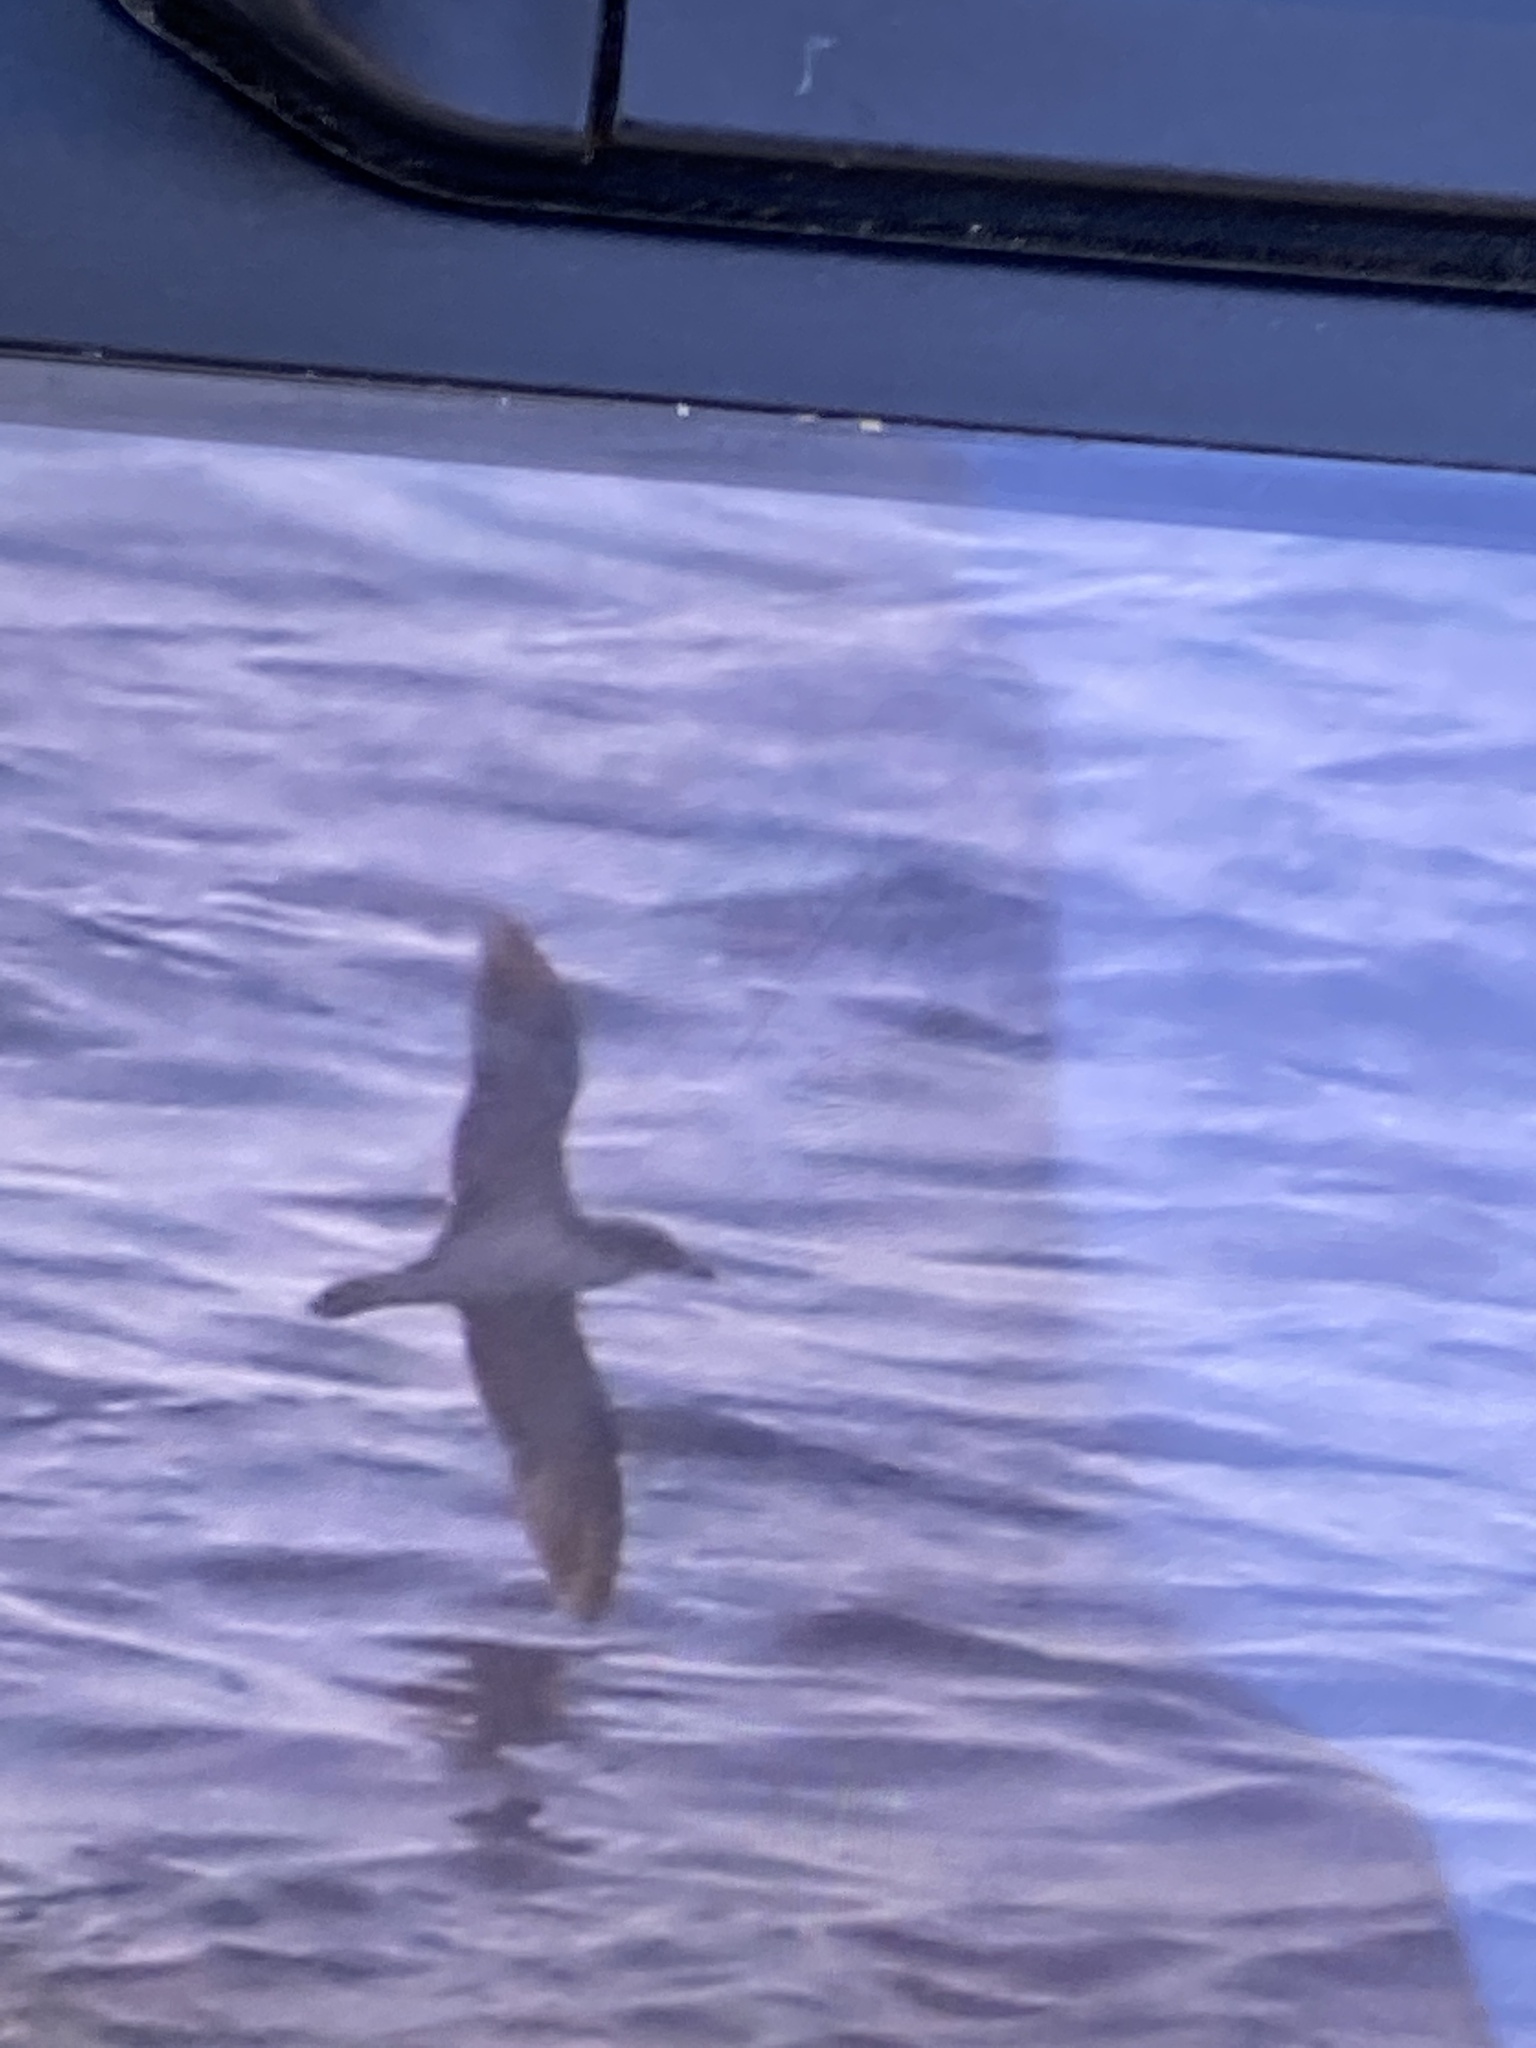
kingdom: Animalia
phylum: Chordata
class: Aves
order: Procellariiformes
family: Procellariidae
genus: Calonectris
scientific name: Calonectris diomedea
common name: Cory's shearwater
